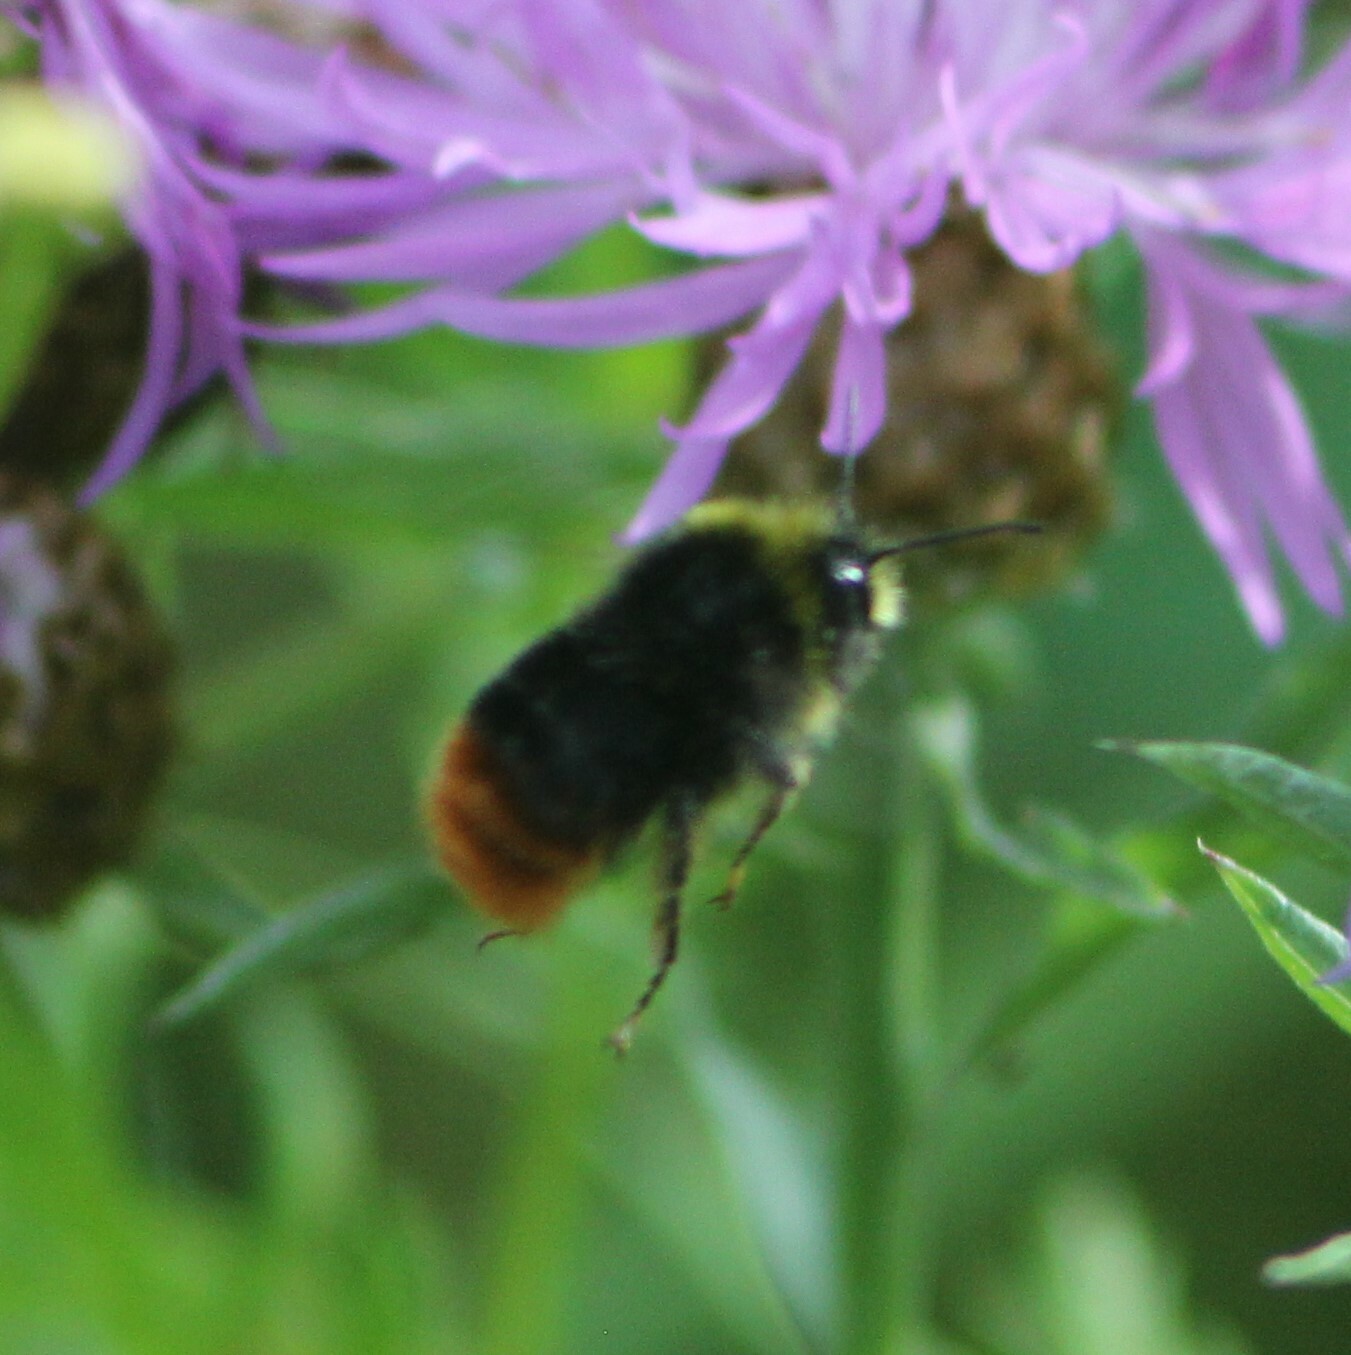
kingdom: Animalia
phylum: Arthropoda
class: Insecta
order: Hymenoptera
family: Apidae
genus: Bombus
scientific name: Bombus lapidarius
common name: Large red-tailed humble-bee
